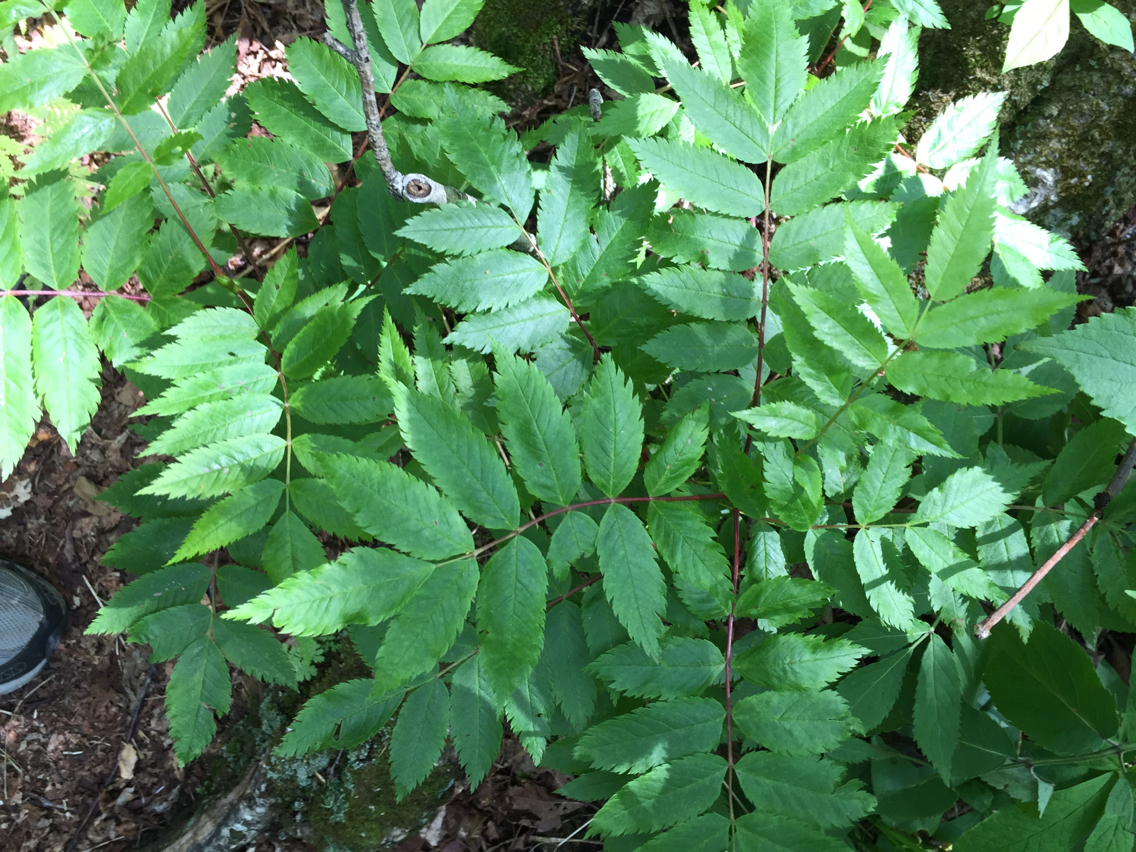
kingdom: Plantae
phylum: Tracheophyta
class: Magnoliopsida
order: Rosales
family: Rosaceae
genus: Sorbus
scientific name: Sorbus americana
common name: American mountain-ash
